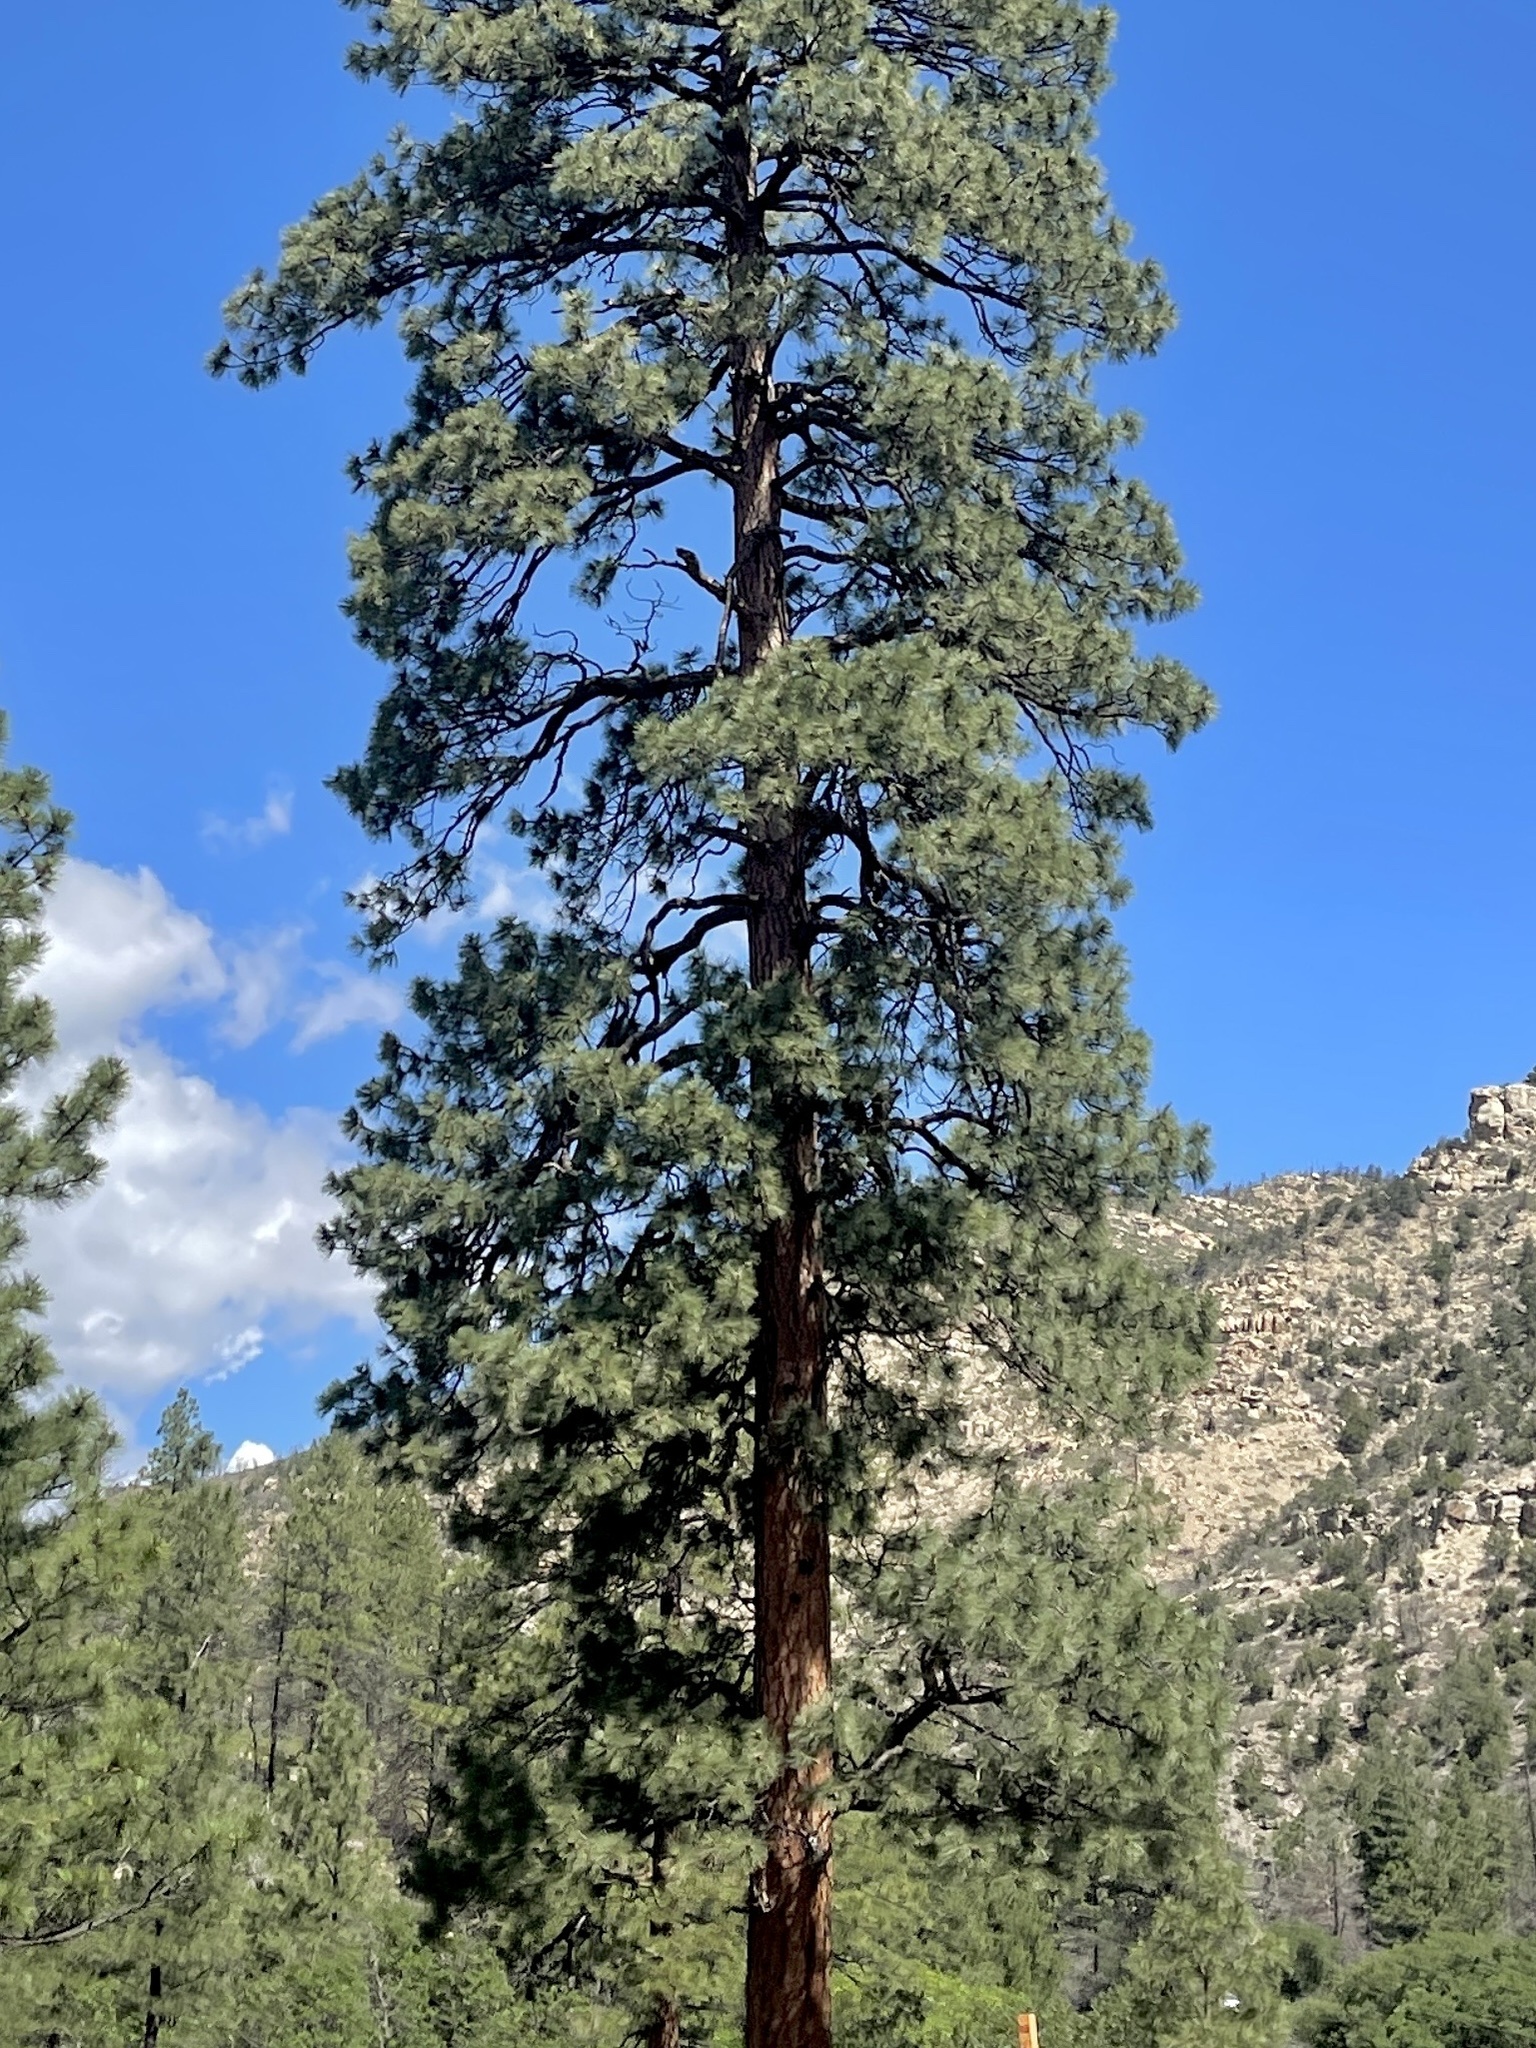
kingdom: Plantae
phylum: Tracheophyta
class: Pinopsida
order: Pinales
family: Pinaceae
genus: Pinus
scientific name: Pinus ponderosa
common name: Western yellow-pine
